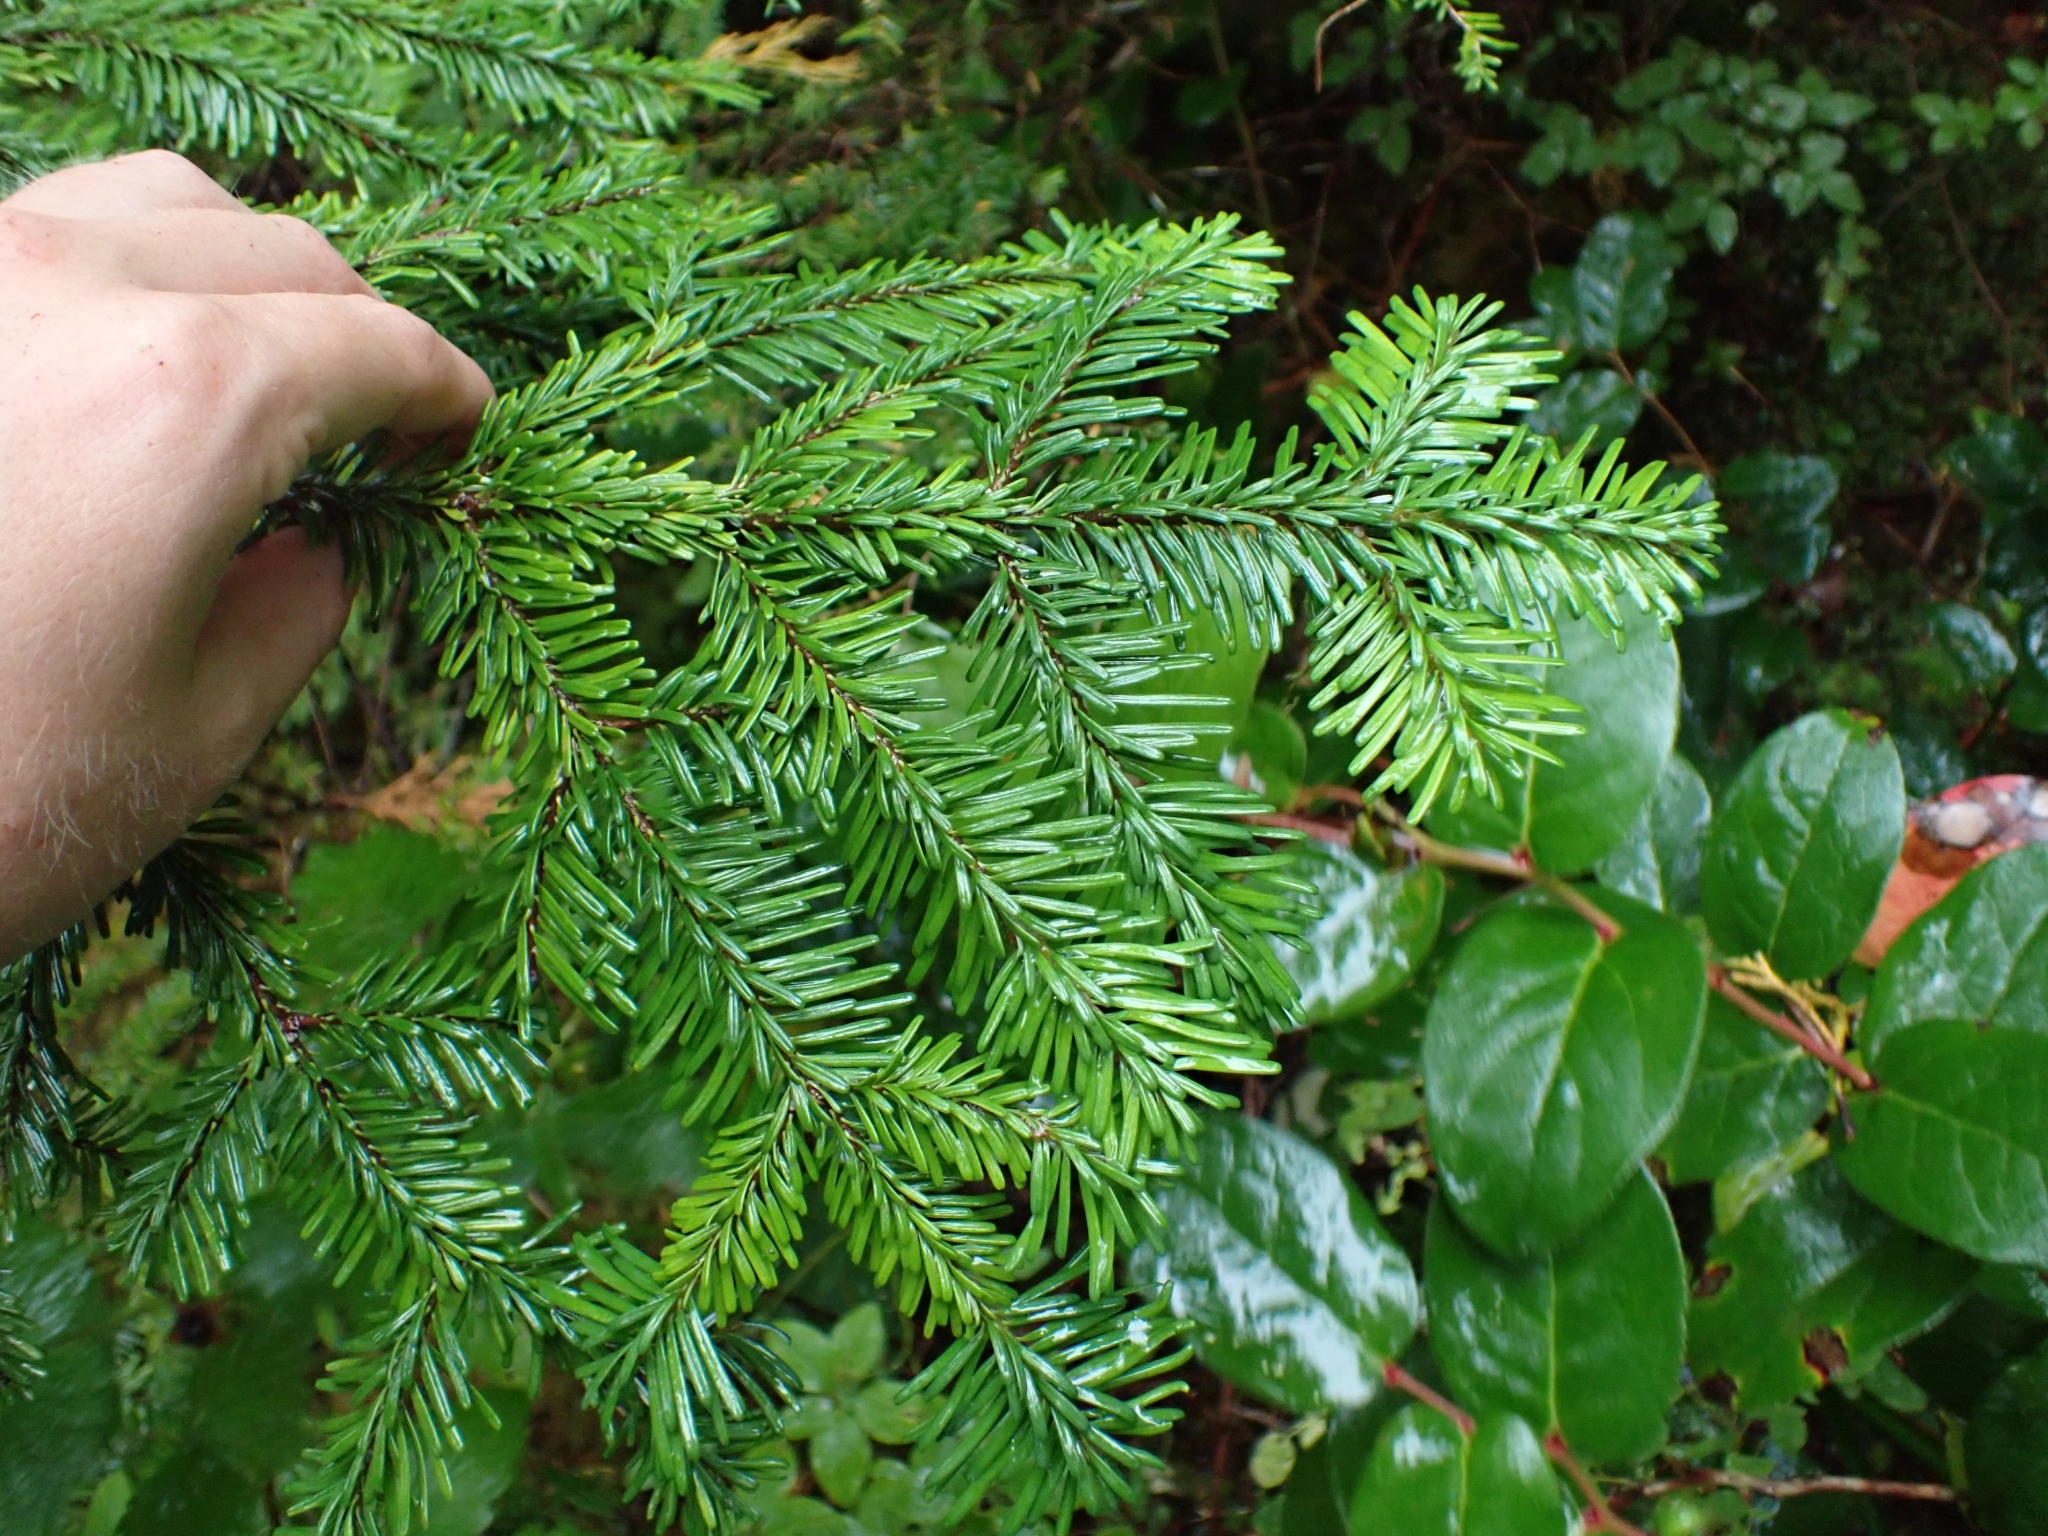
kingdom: Plantae
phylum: Tracheophyta
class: Pinopsida
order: Pinales
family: Pinaceae
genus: Abies
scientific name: Abies amabilis
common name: Pacific silver fir
